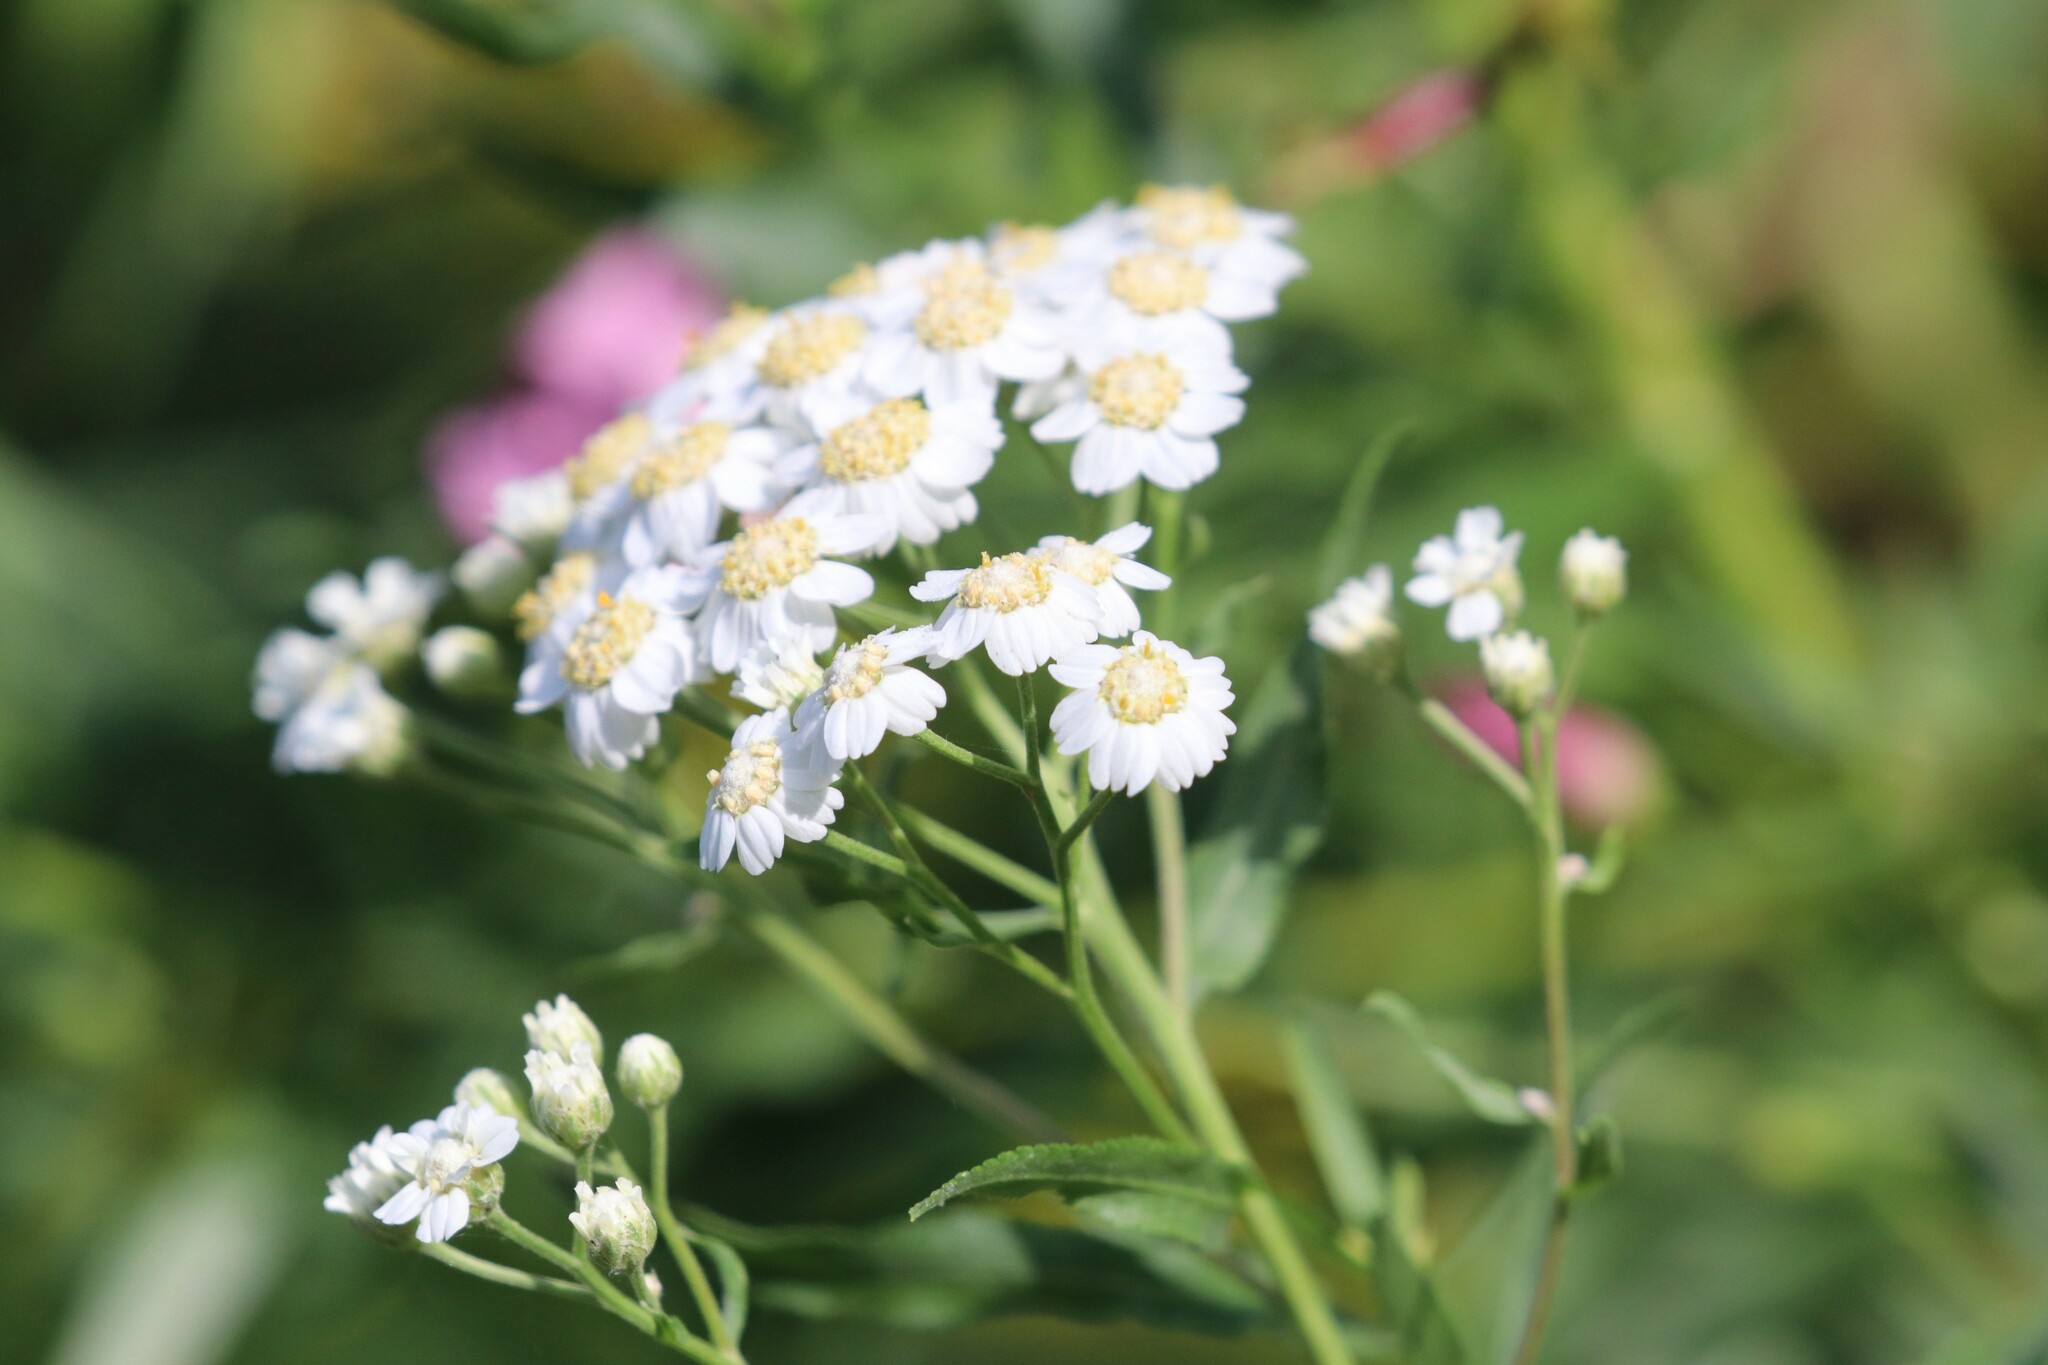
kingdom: Plantae
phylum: Tracheophyta
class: Magnoliopsida
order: Asterales
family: Asteraceae
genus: Achillea
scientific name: Achillea salicifolia
